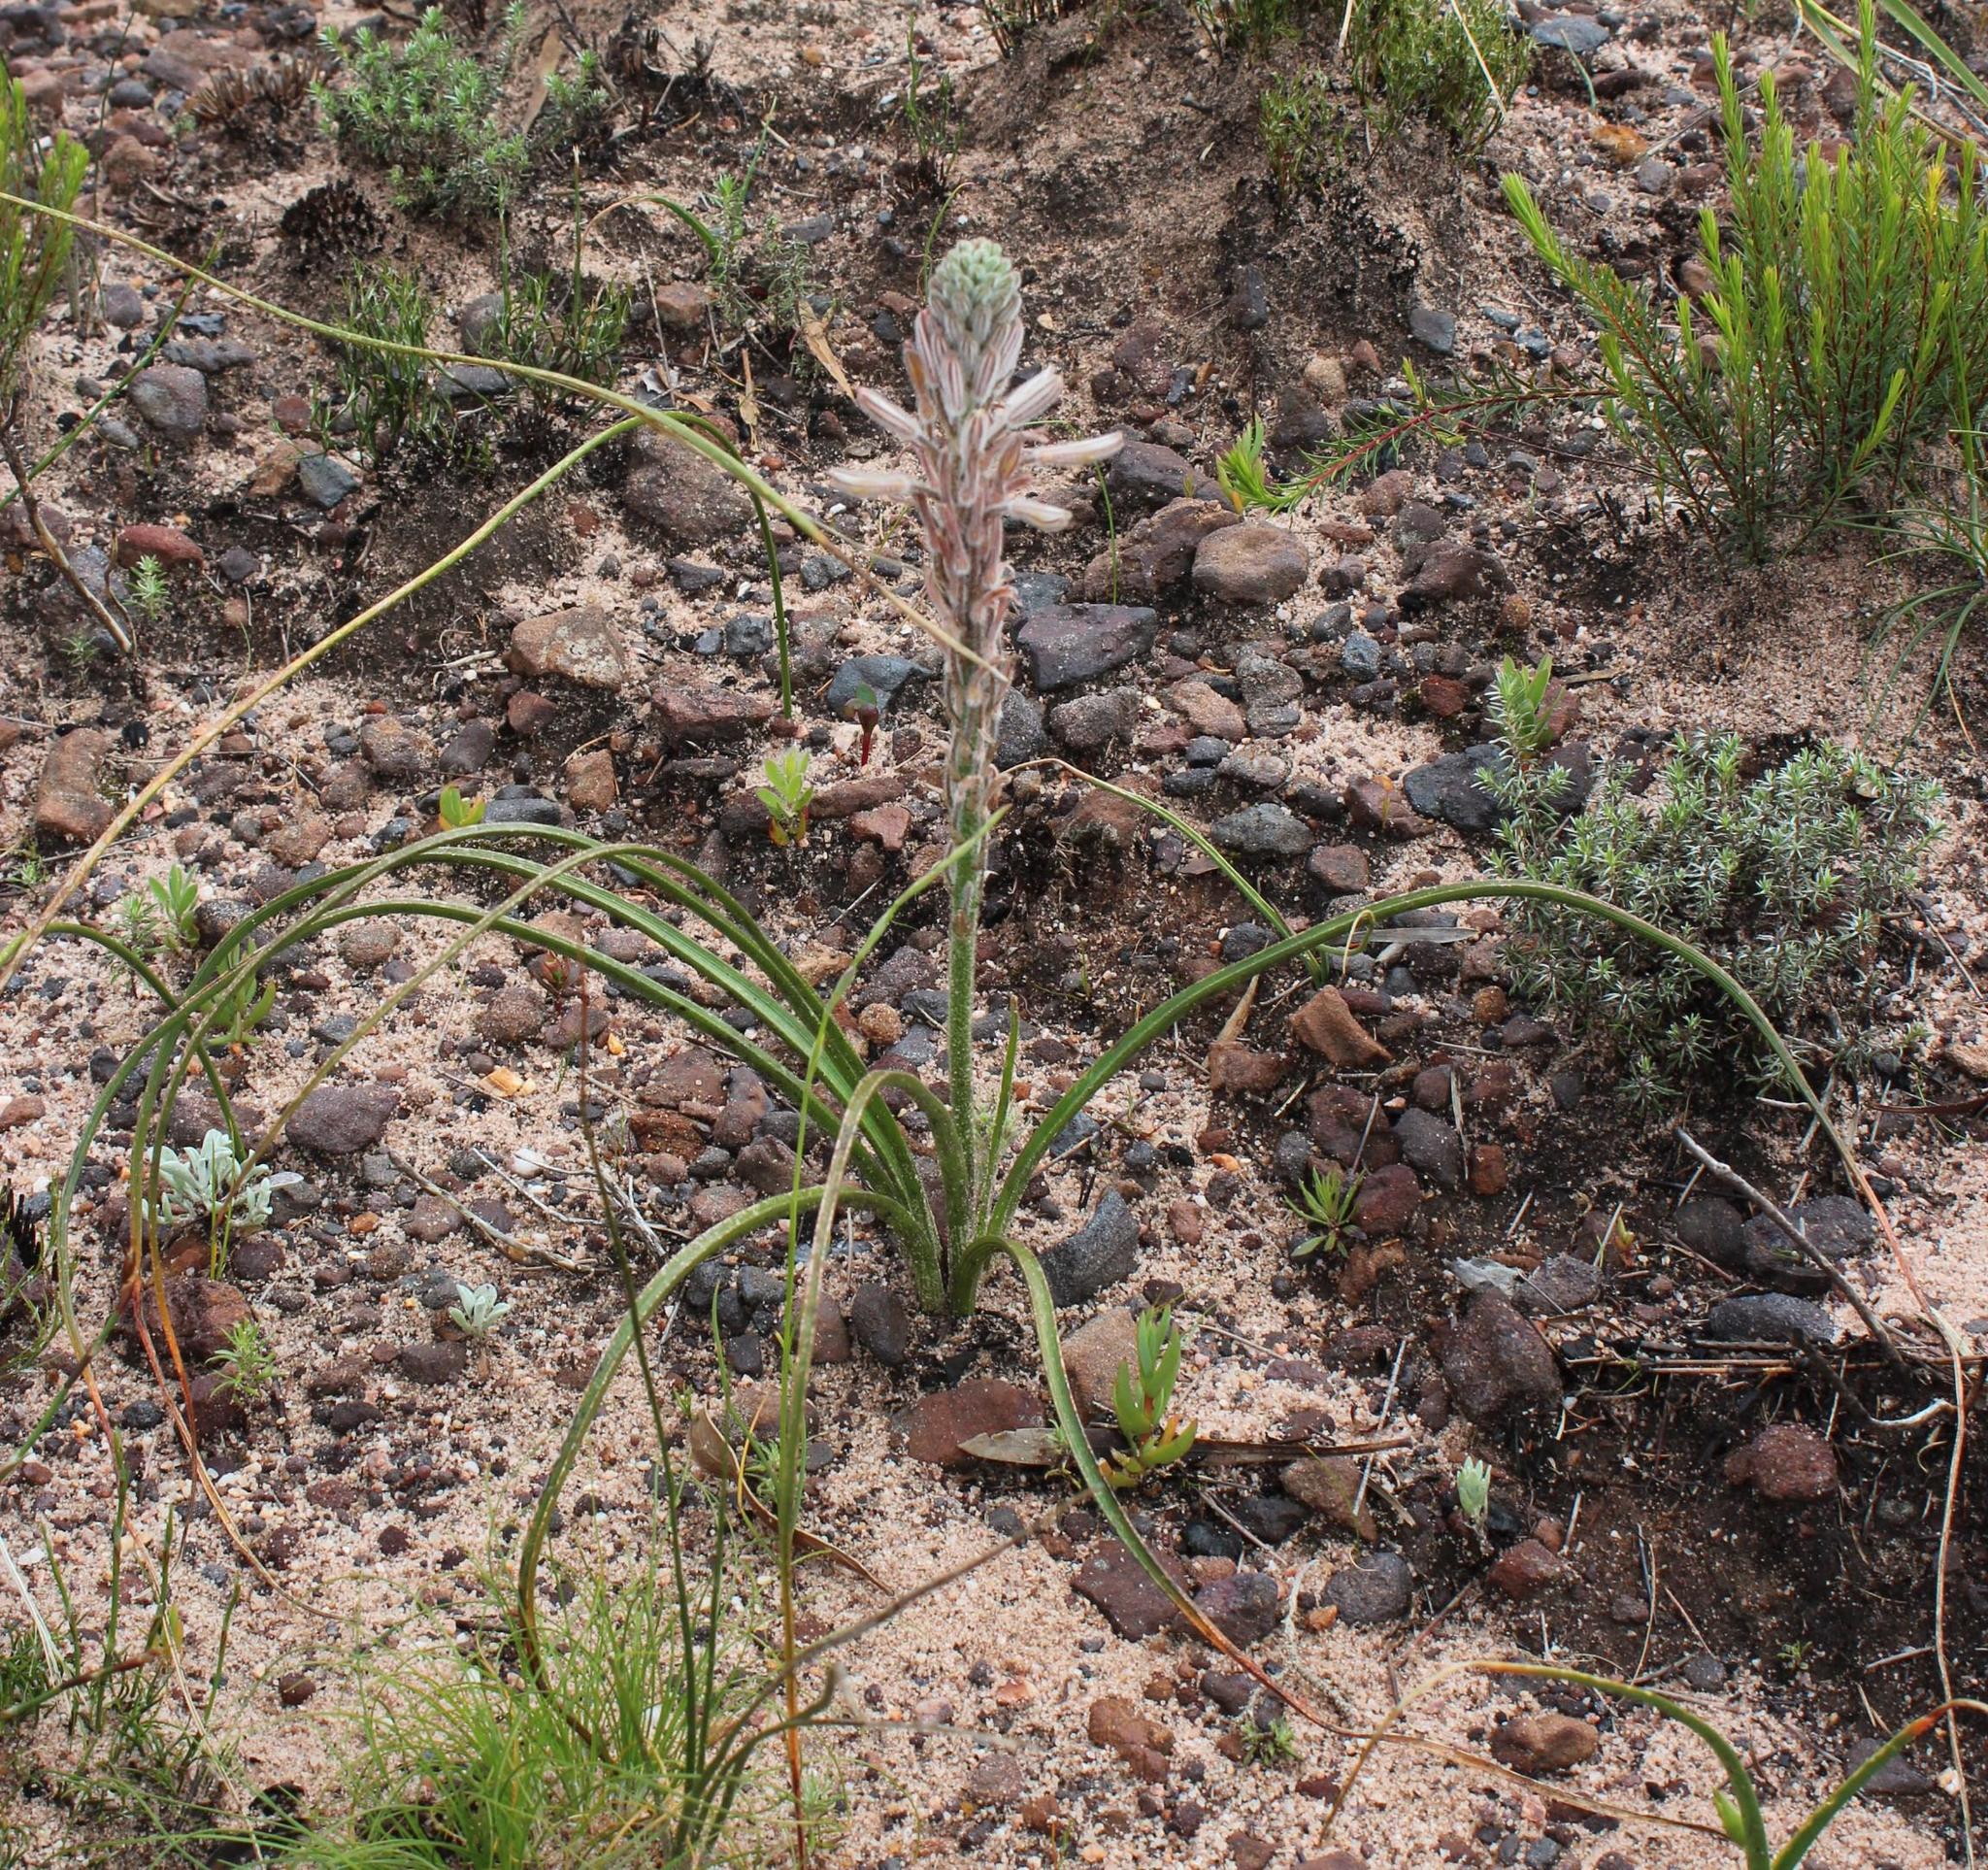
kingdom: Plantae
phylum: Tracheophyta
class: Liliopsida
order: Asparagales
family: Asphodelaceae
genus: Trachyandra
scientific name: Trachyandra hirsutiflora
